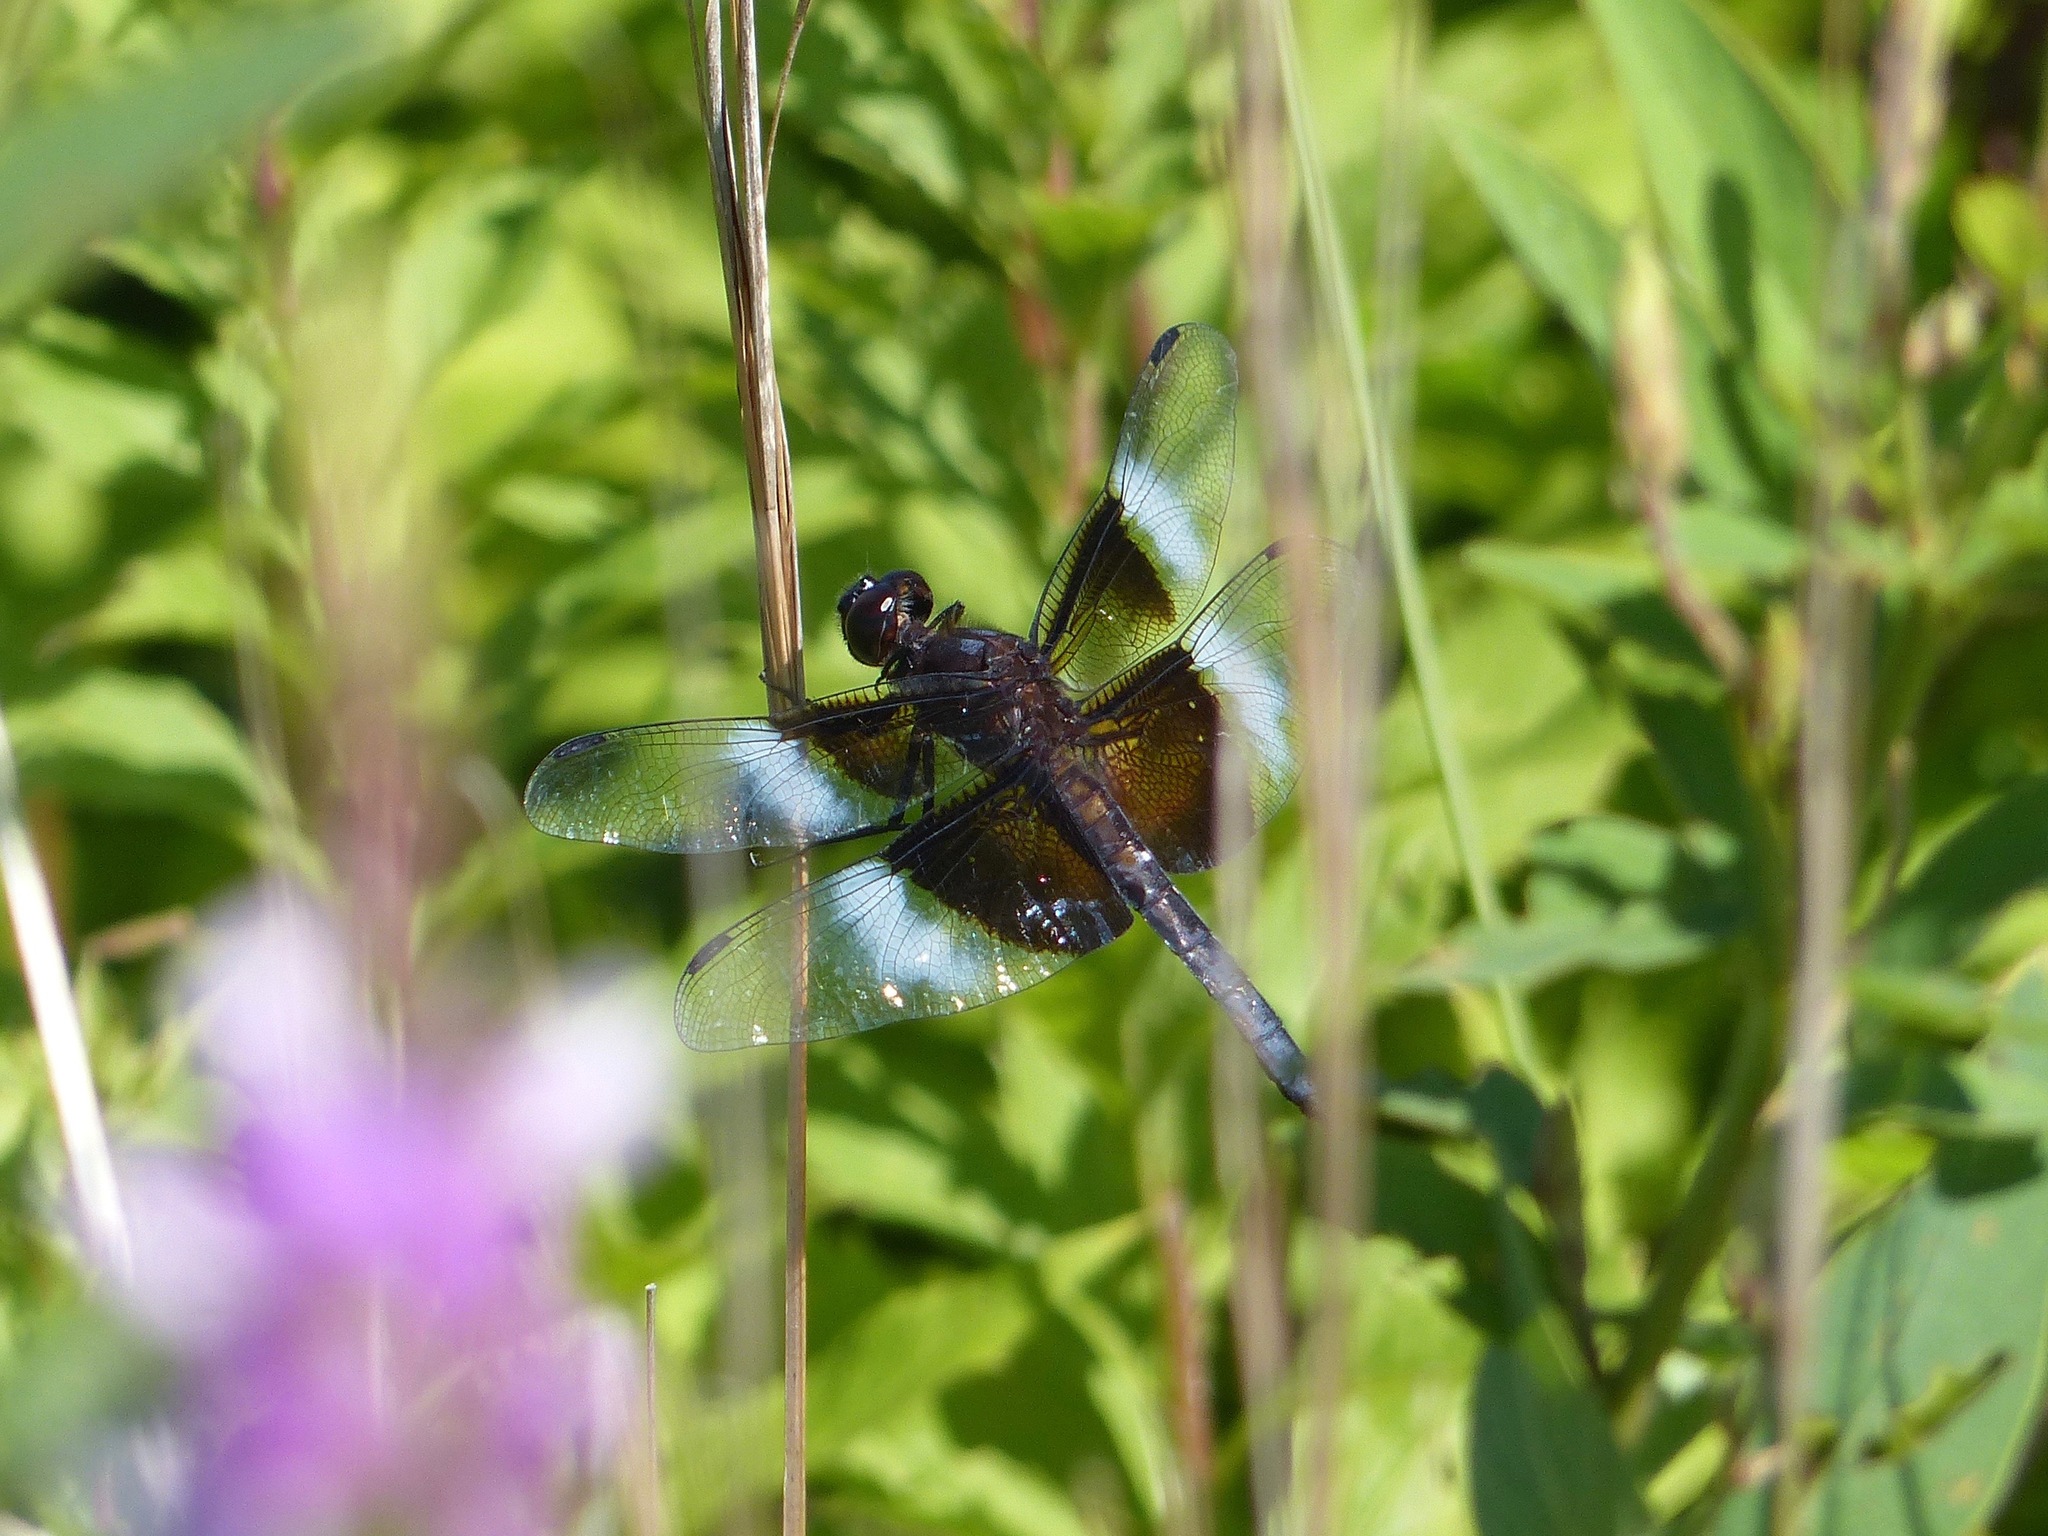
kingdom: Animalia
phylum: Arthropoda
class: Insecta
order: Odonata
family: Libellulidae
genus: Libellula
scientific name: Libellula luctuosa
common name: Widow skimmer
